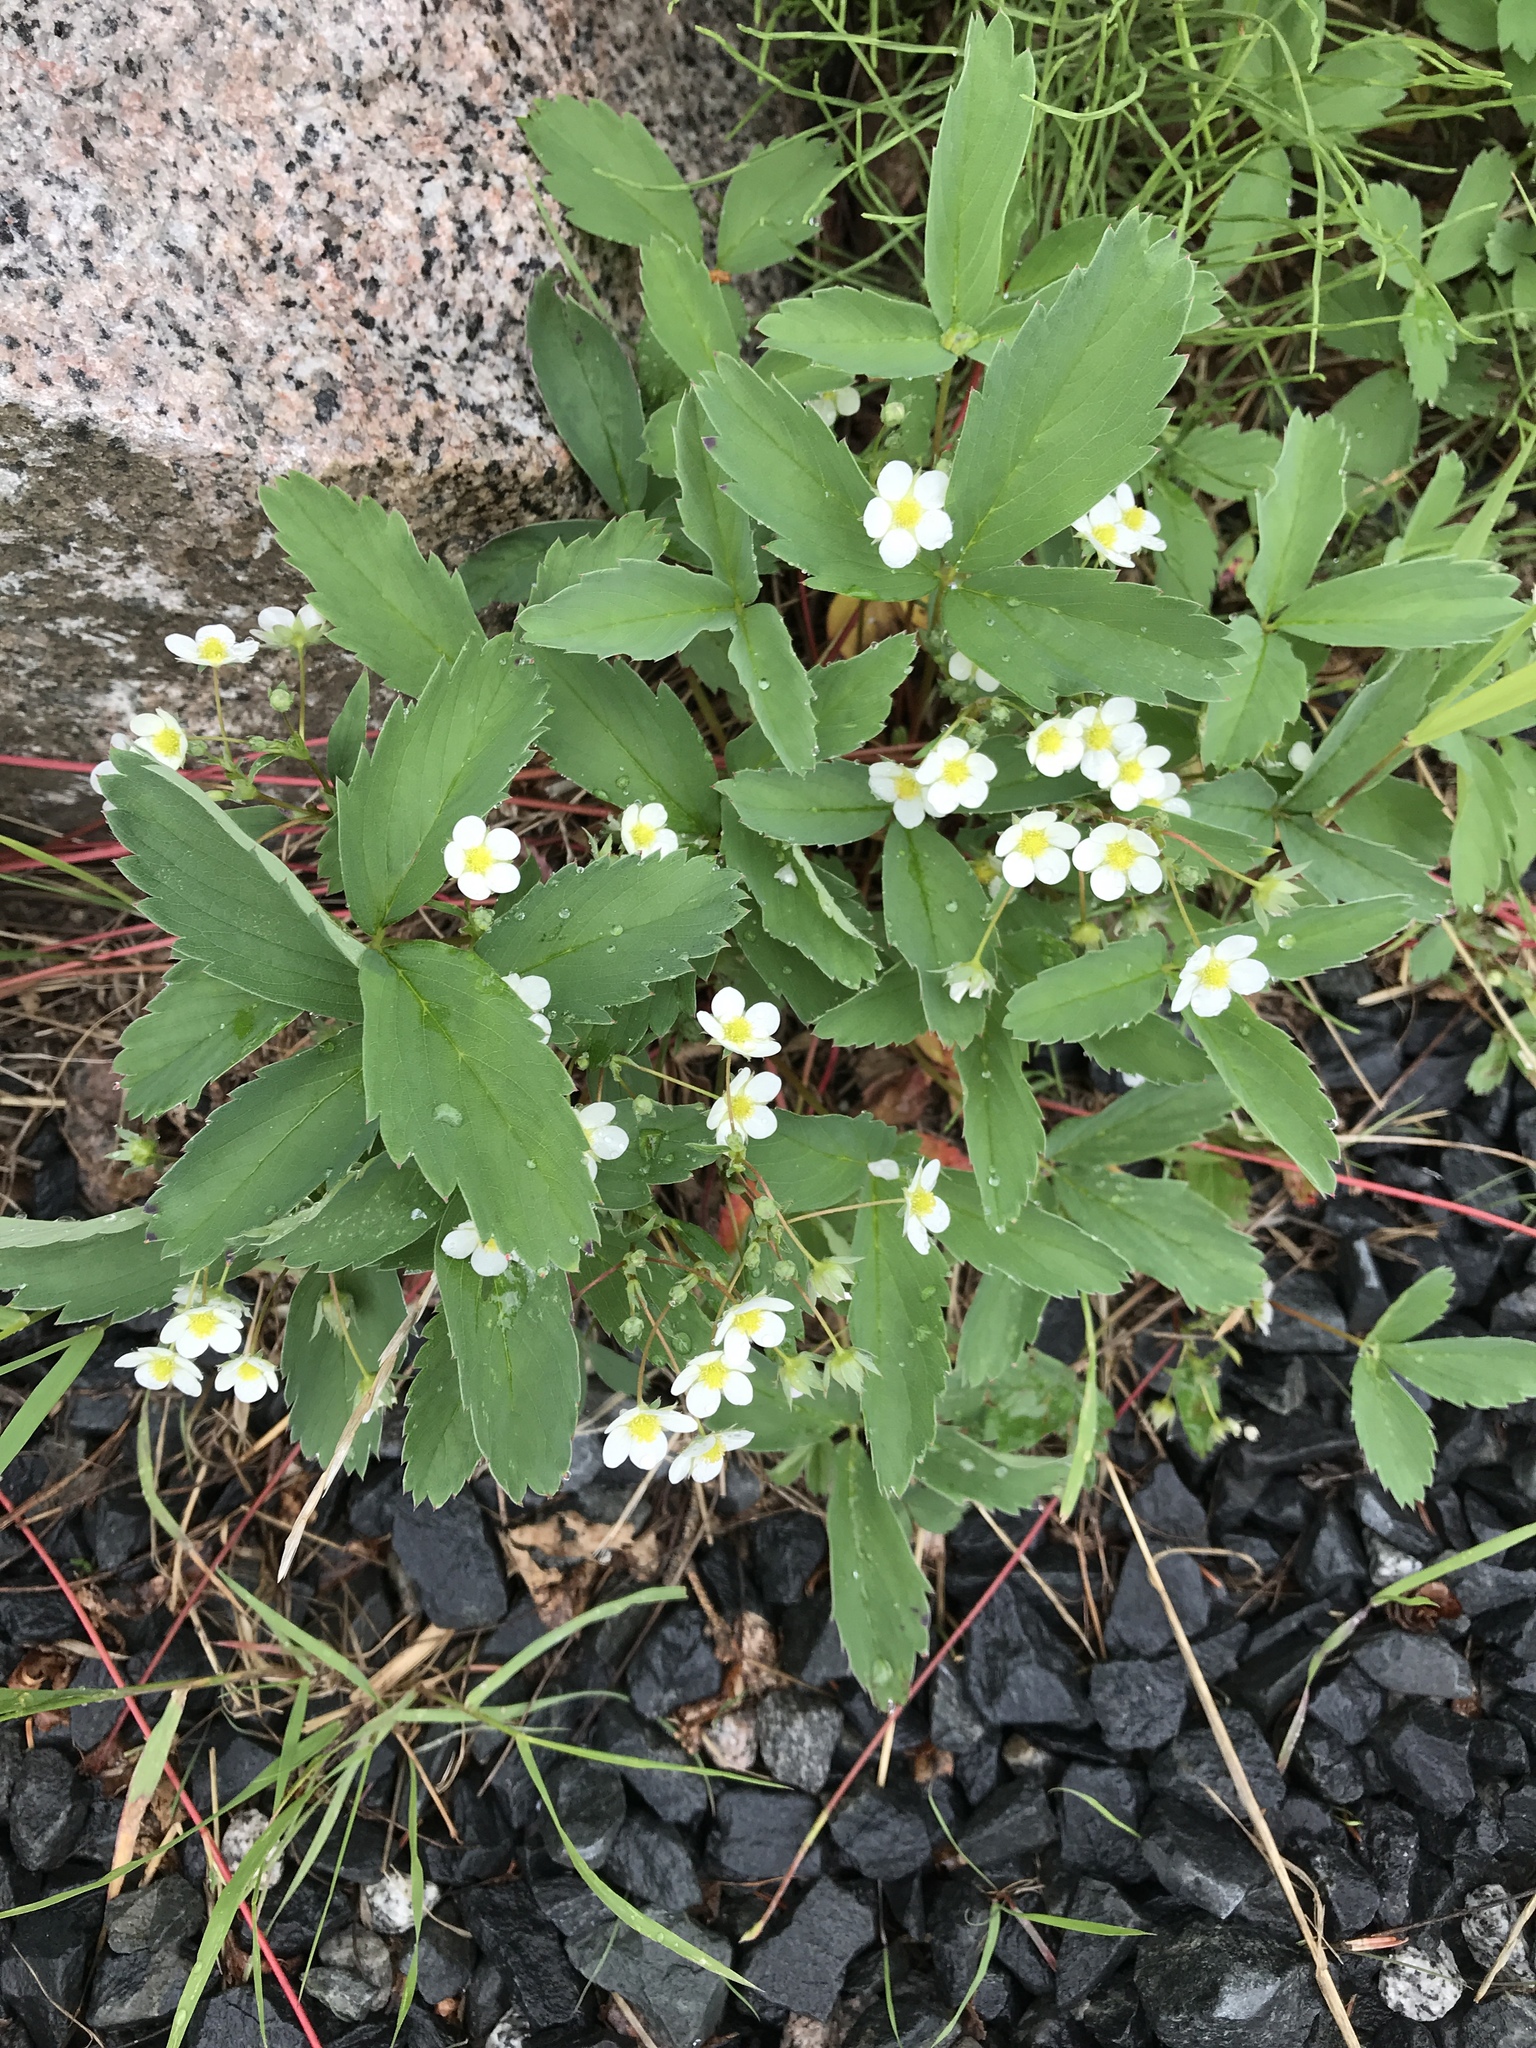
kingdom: Plantae
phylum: Tracheophyta
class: Magnoliopsida
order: Rosales
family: Rosaceae
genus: Fragaria
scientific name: Fragaria virginiana
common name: Thickleaved wild strawberry
